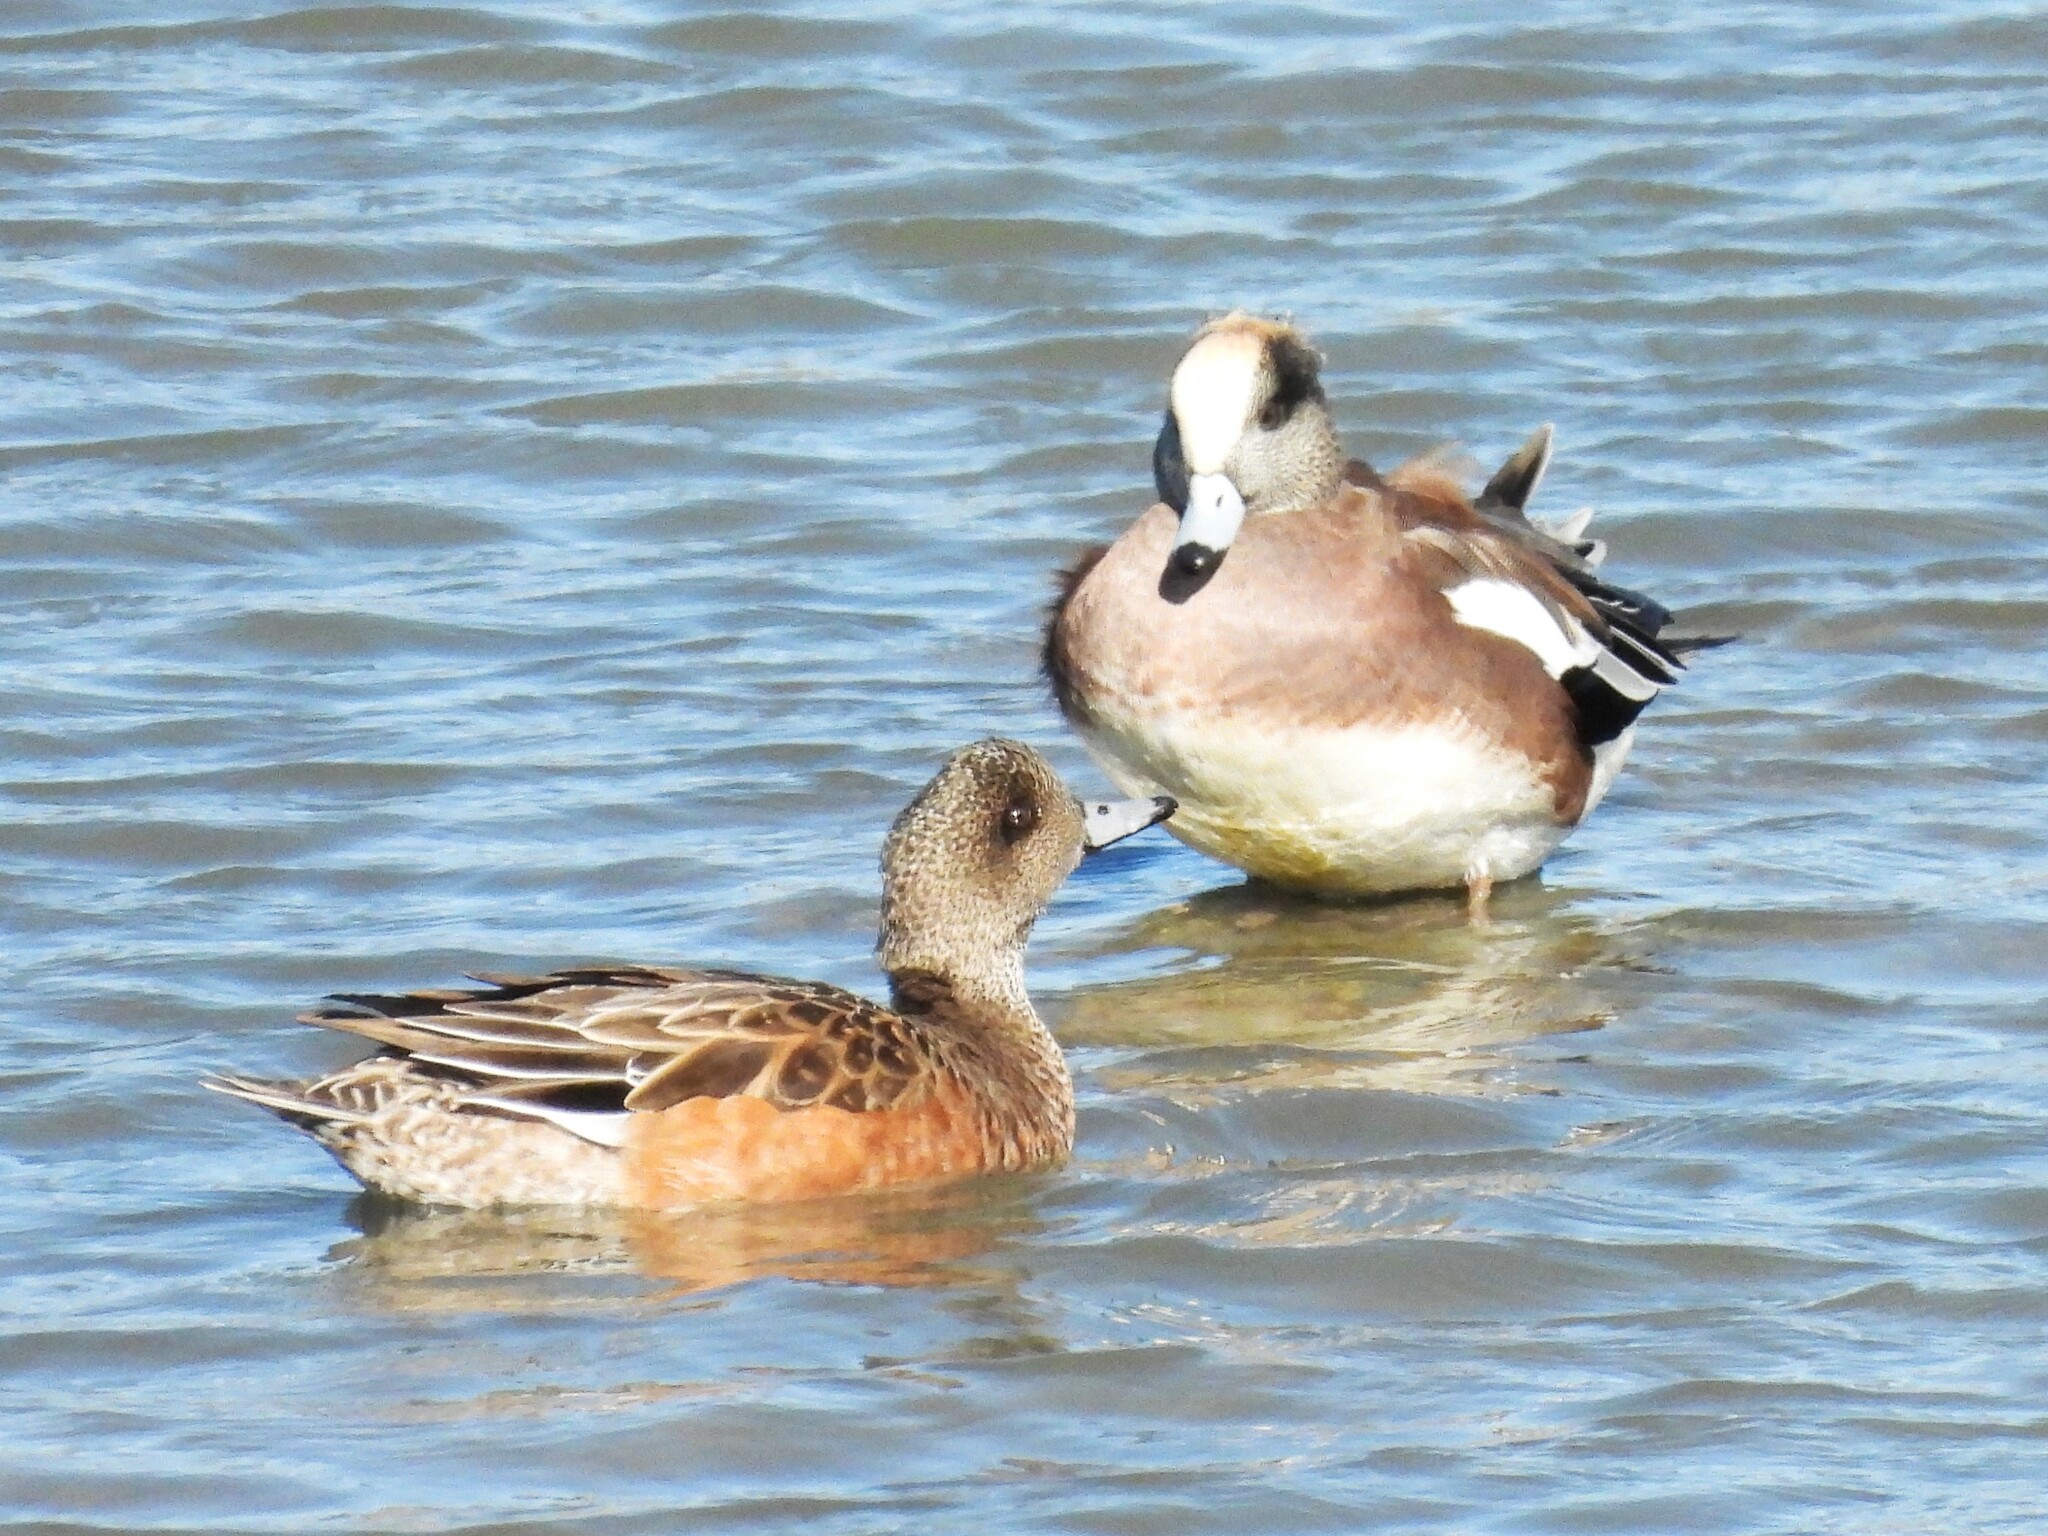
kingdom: Animalia
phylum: Chordata
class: Aves
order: Anseriformes
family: Anatidae
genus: Mareca
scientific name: Mareca americana
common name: American wigeon
